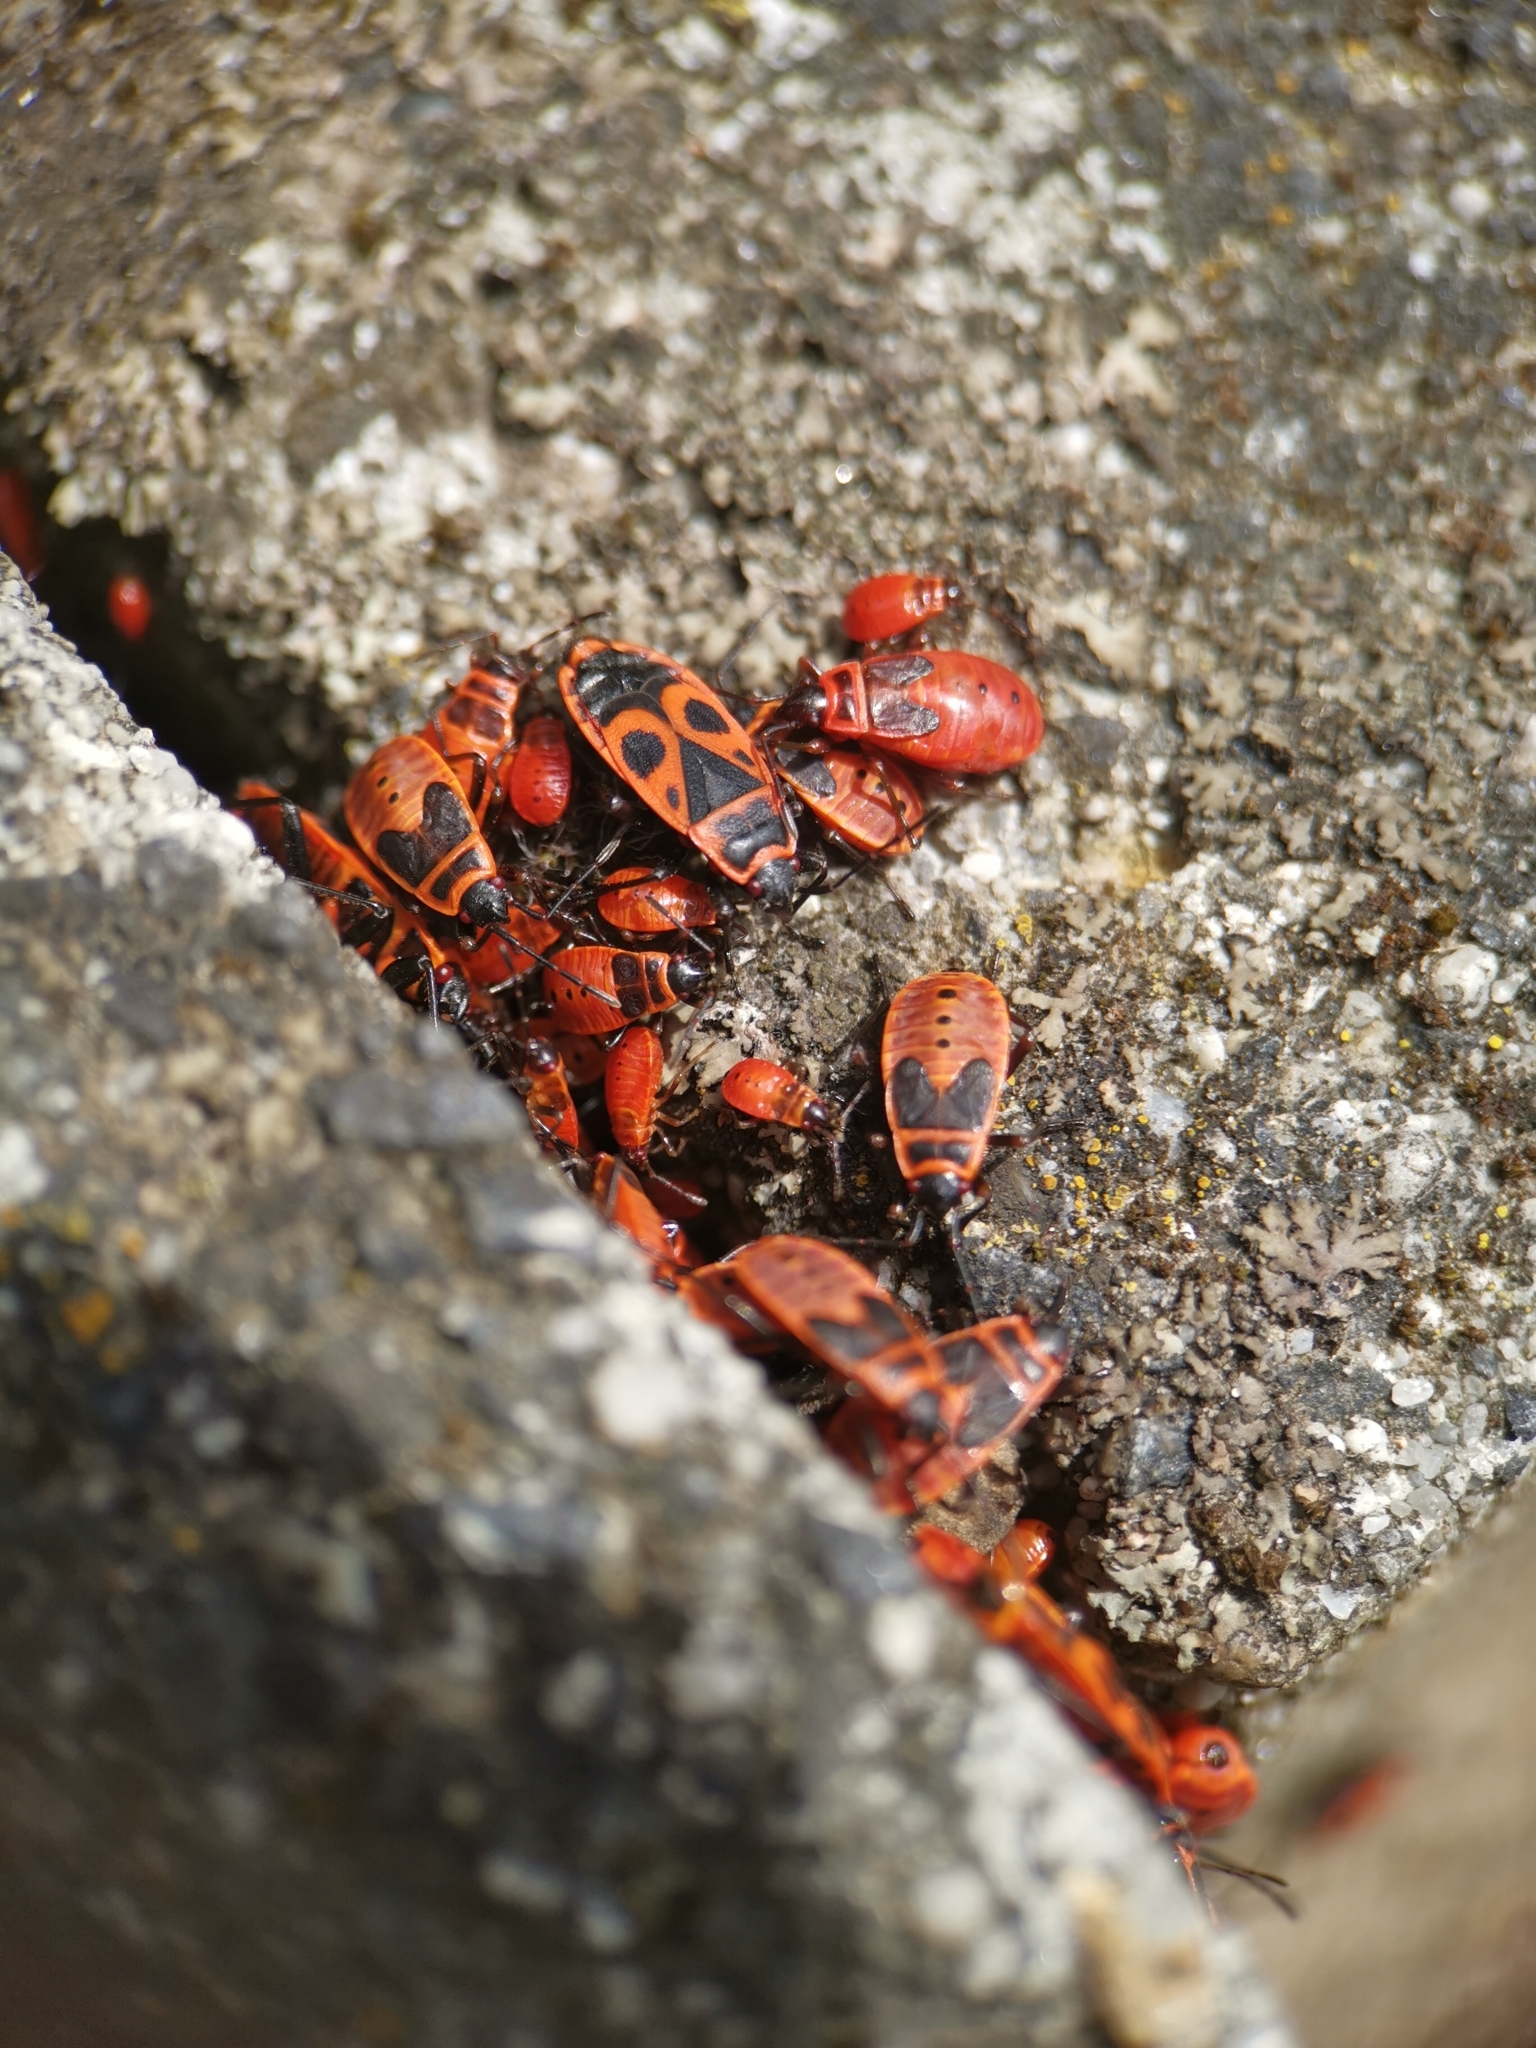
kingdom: Animalia
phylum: Arthropoda
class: Insecta
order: Hemiptera
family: Pyrrhocoridae
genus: Pyrrhocoris
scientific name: Pyrrhocoris apterus
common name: Firebug
